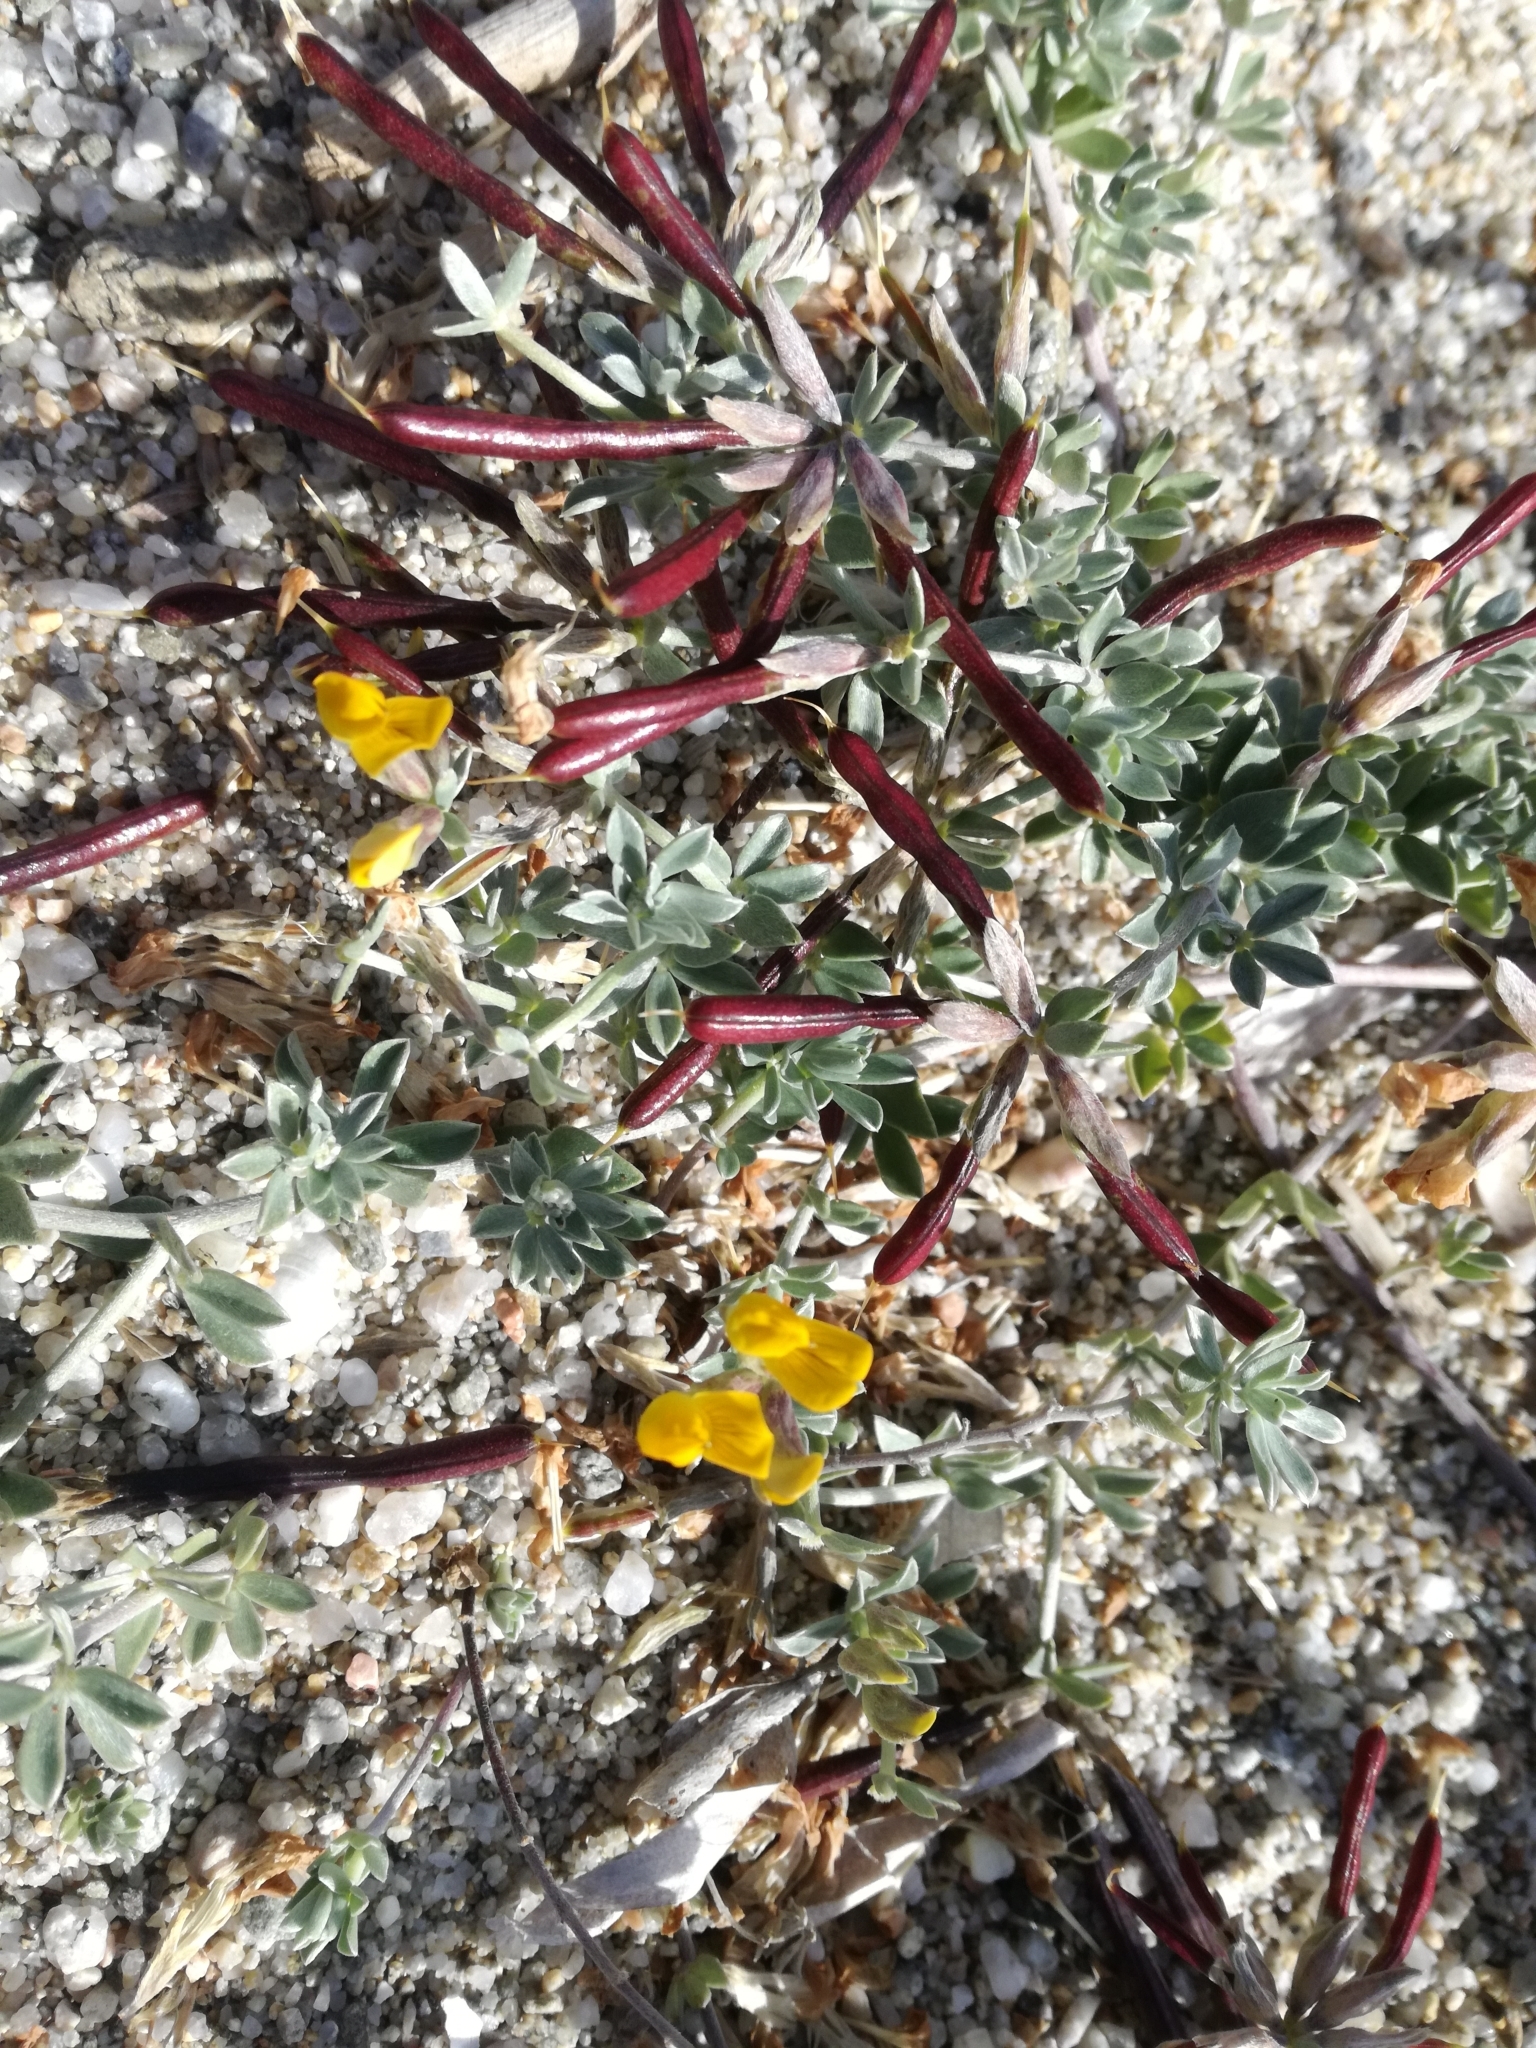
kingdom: Plantae
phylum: Tracheophyta
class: Magnoliopsida
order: Fabales
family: Fabaceae
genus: Lotus
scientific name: Lotus creticus
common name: Cretan bird's-foot trefoil
